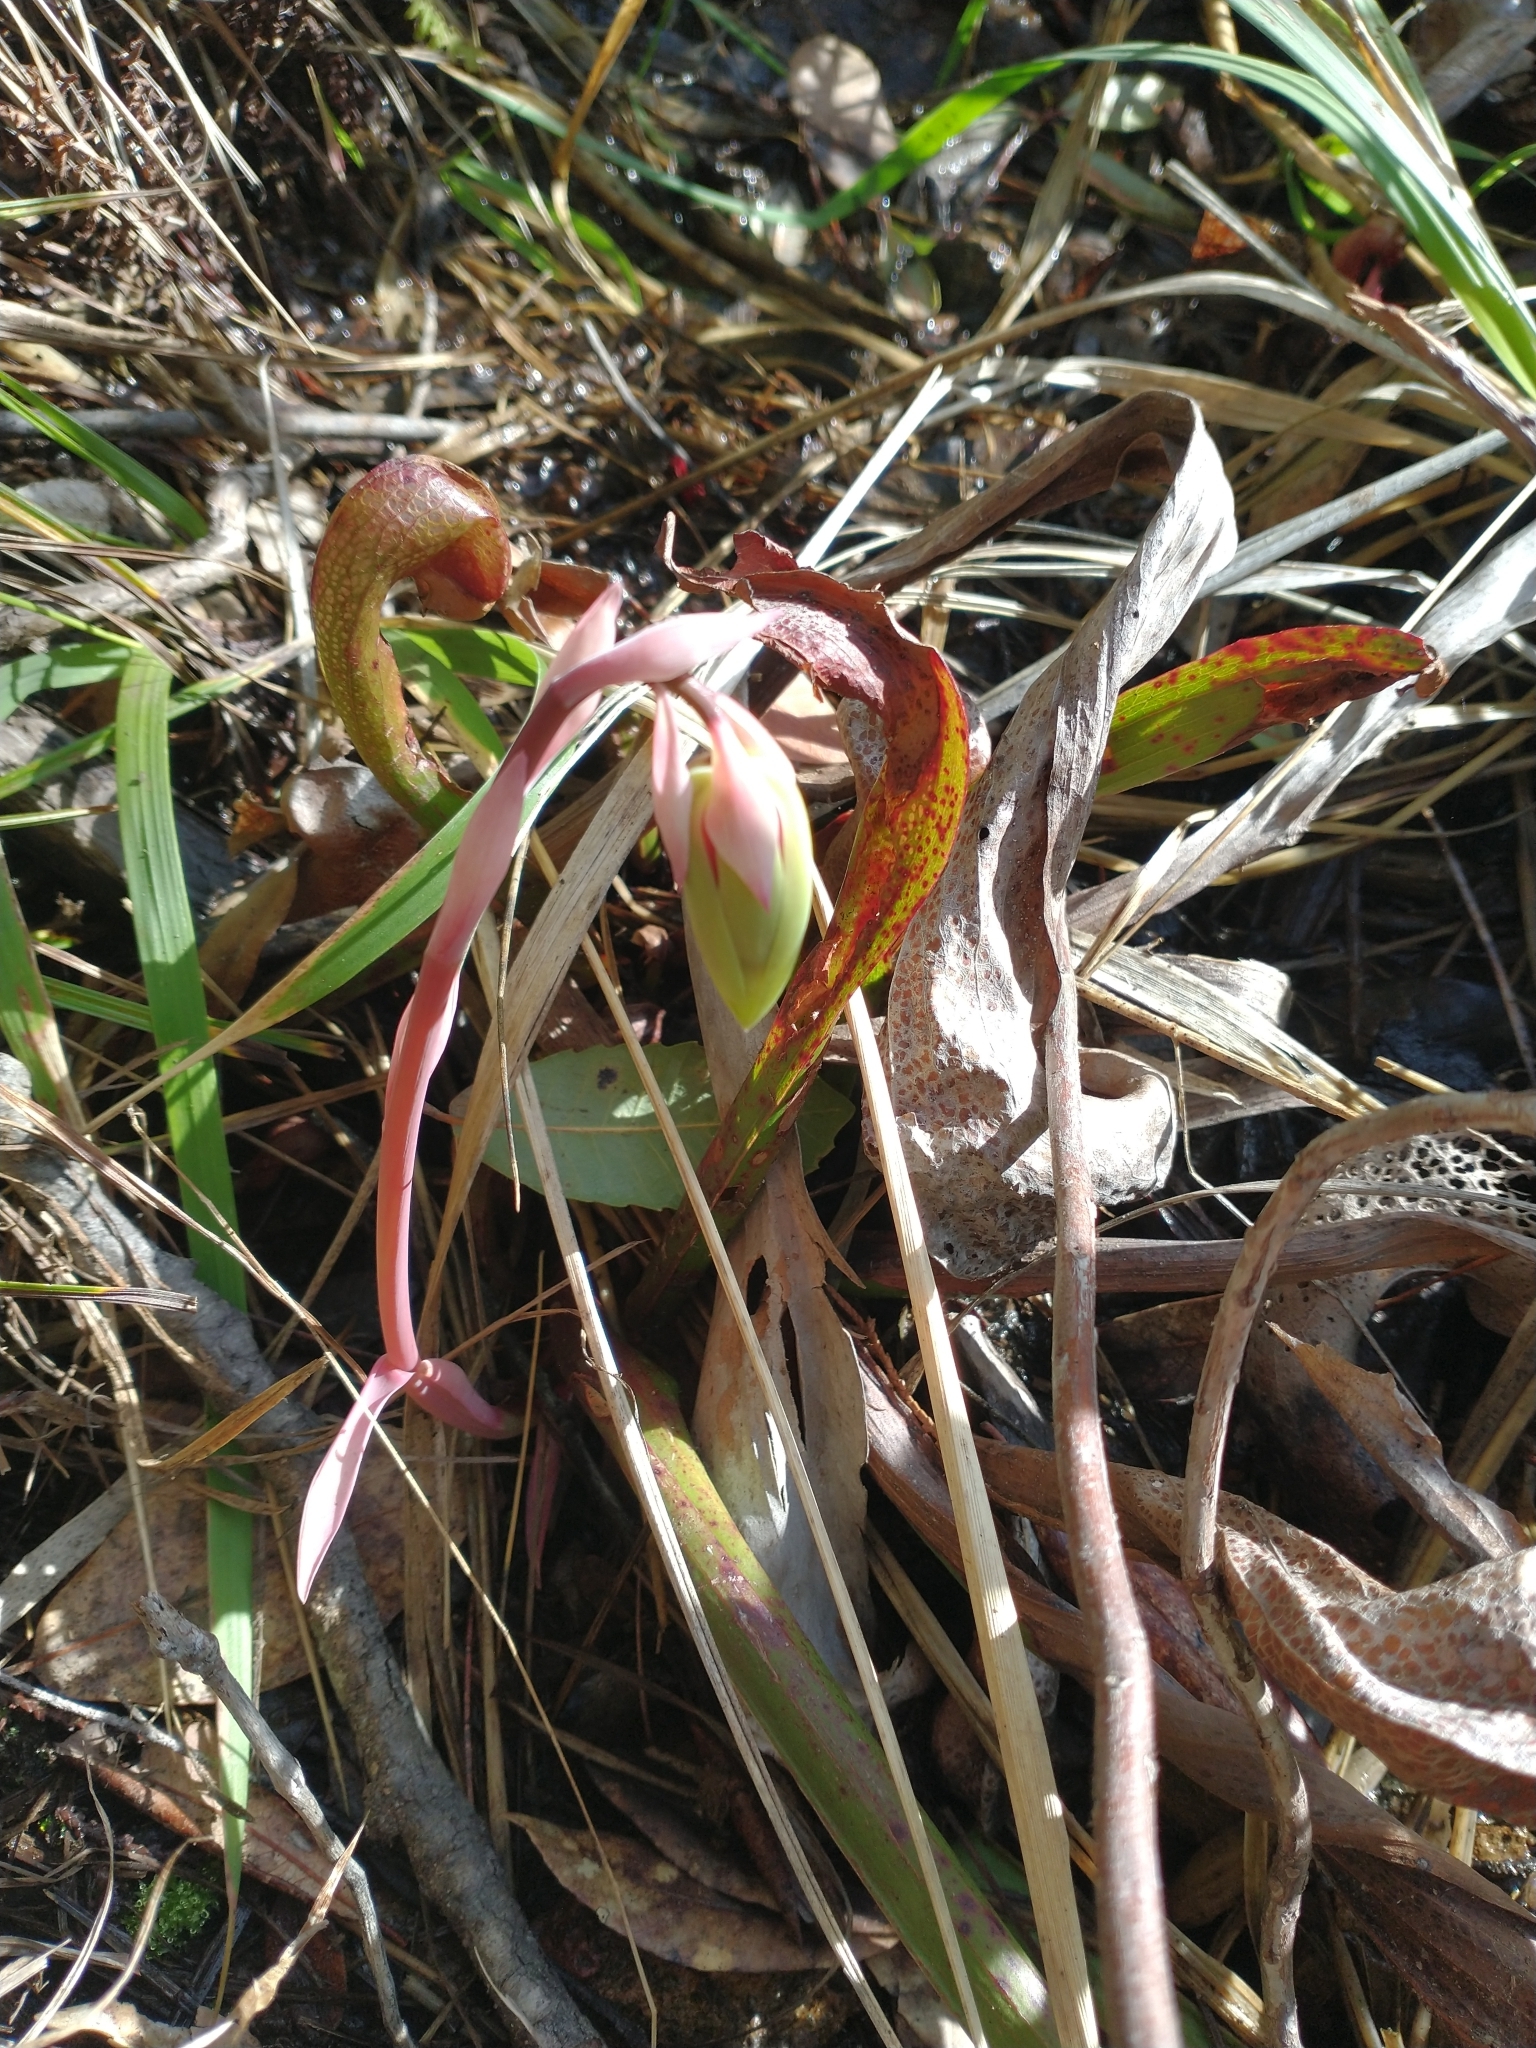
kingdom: Plantae
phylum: Tracheophyta
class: Magnoliopsida
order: Ericales
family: Sarraceniaceae
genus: Darlingtonia
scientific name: Darlingtonia californica
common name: California pitcher plant
